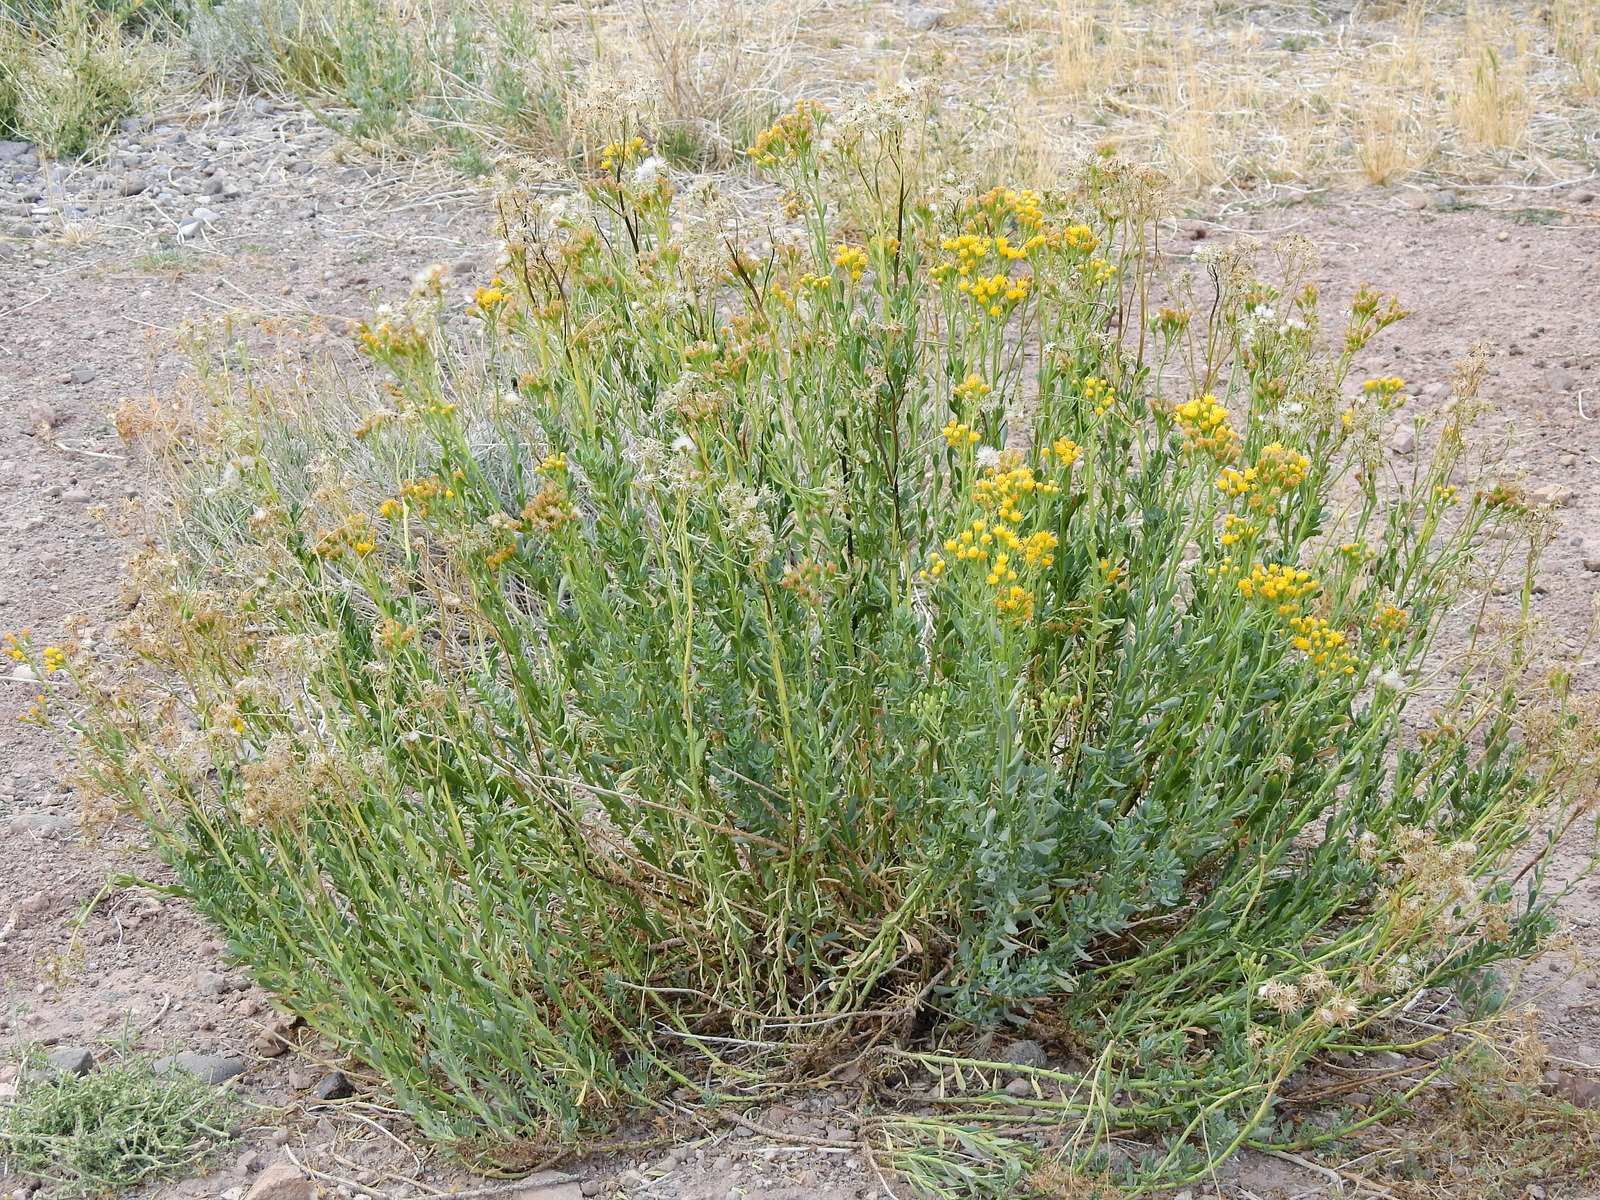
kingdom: Plantae
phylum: Tracheophyta
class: Magnoliopsida
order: Asterales
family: Asteraceae
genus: Senecio
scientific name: Senecio subumbellatus
